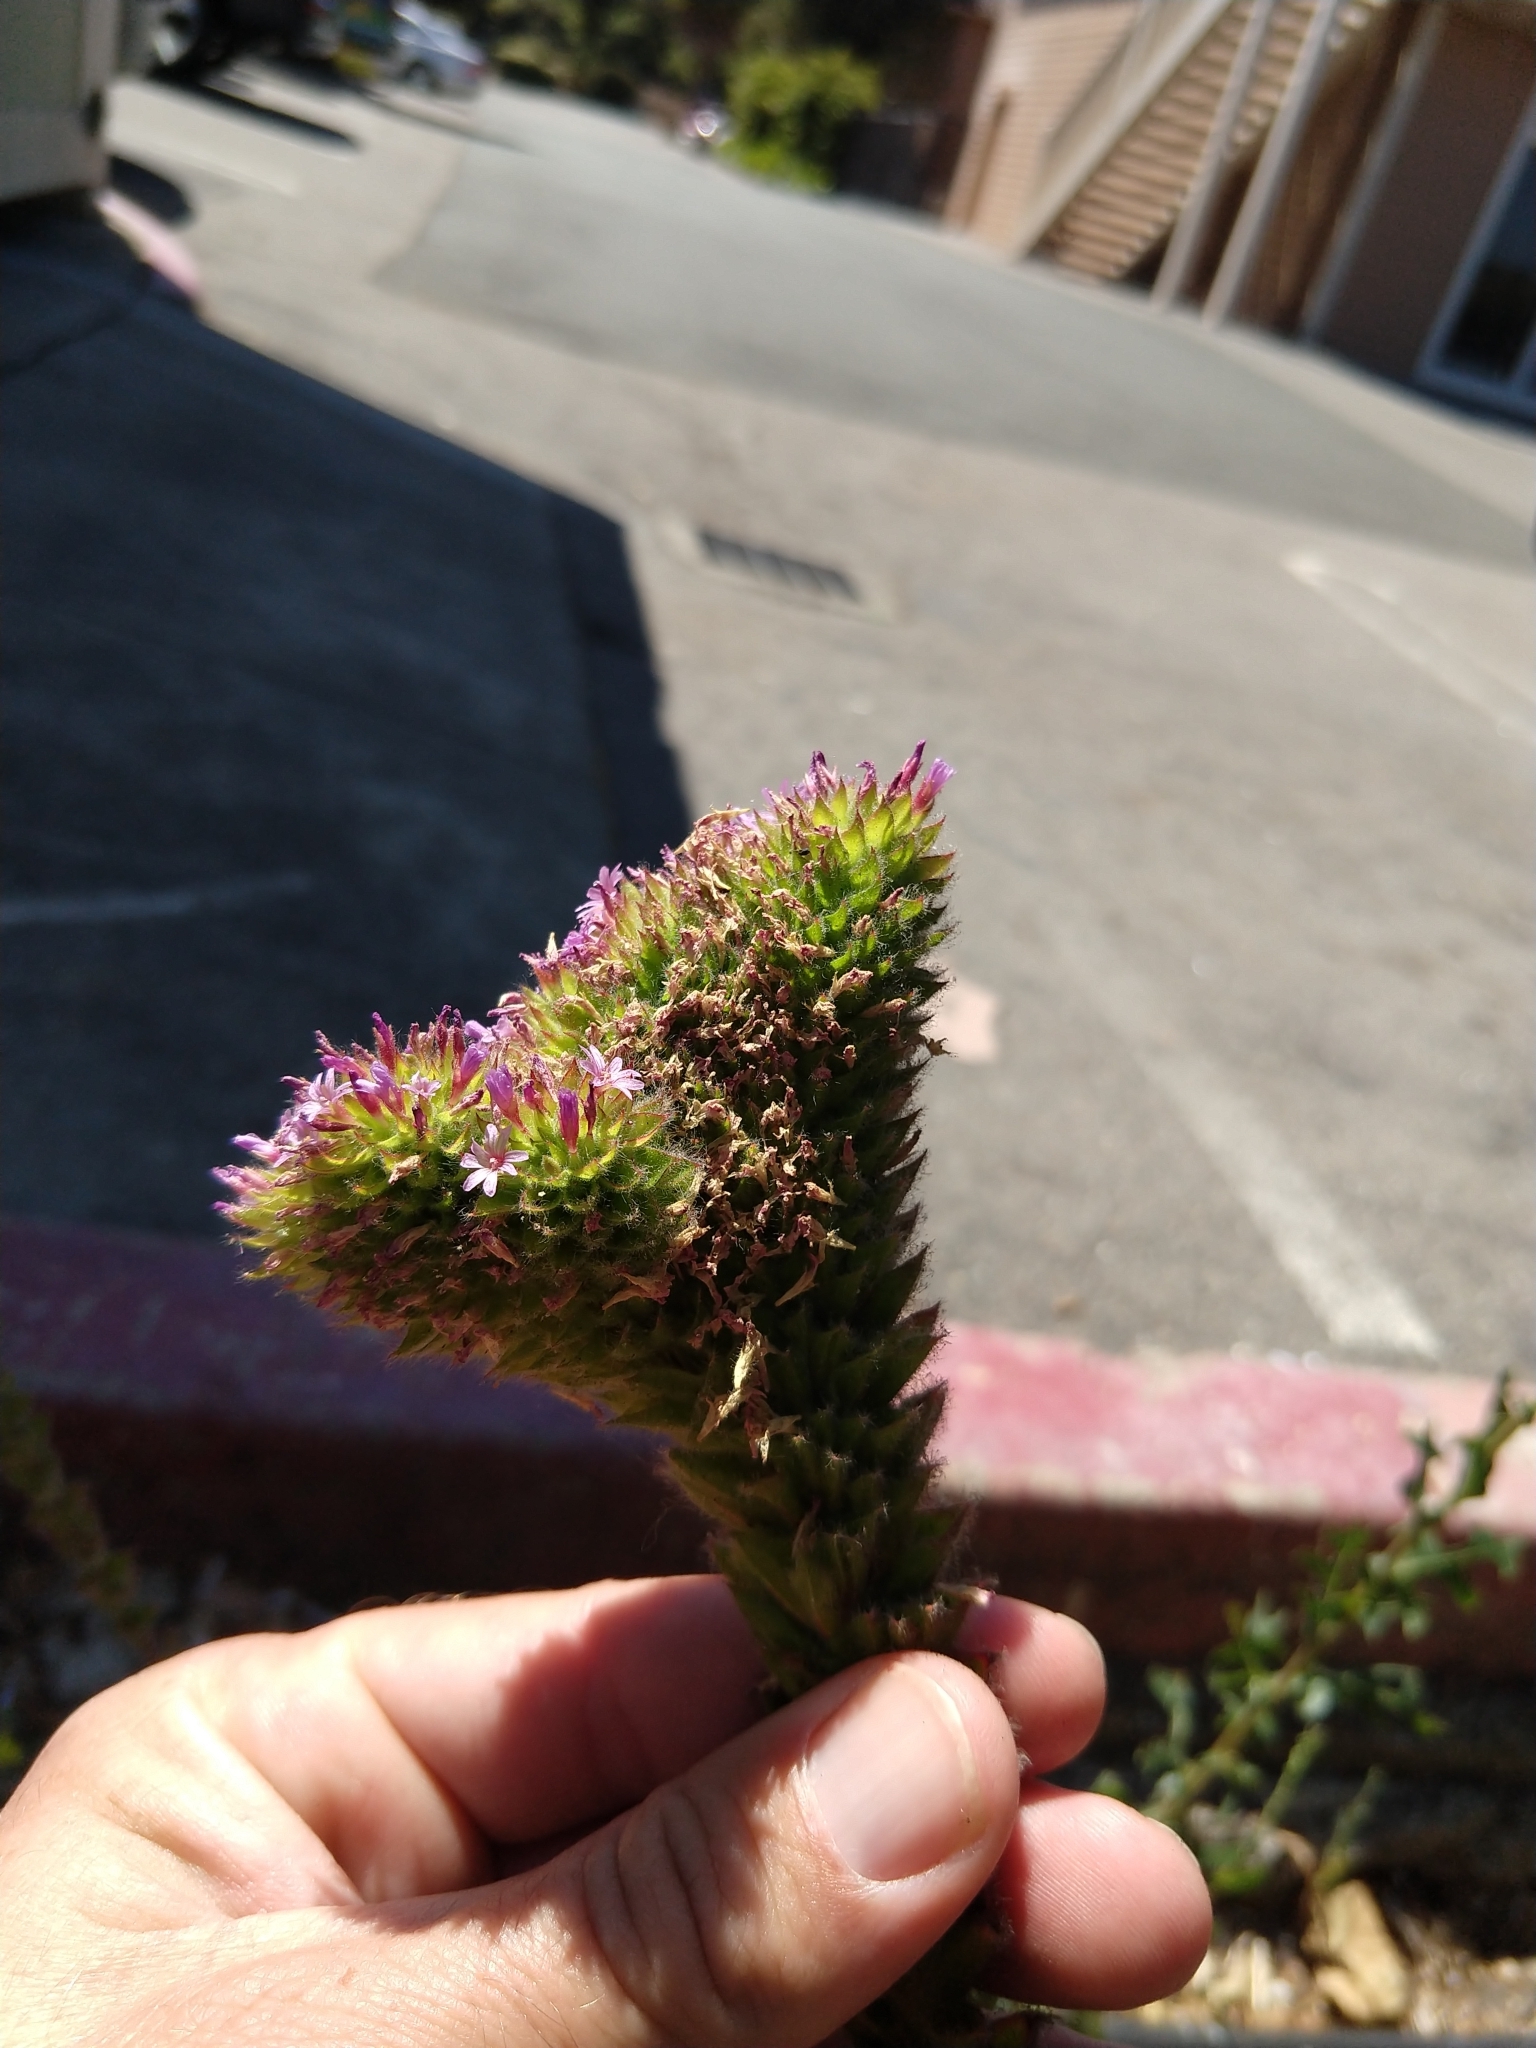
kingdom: Plantae
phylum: Tracheophyta
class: Magnoliopsida
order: Myrtales
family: Onagraceae
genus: Epilobium
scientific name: Epilobium densiflorum
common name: Dense spike-primrose
